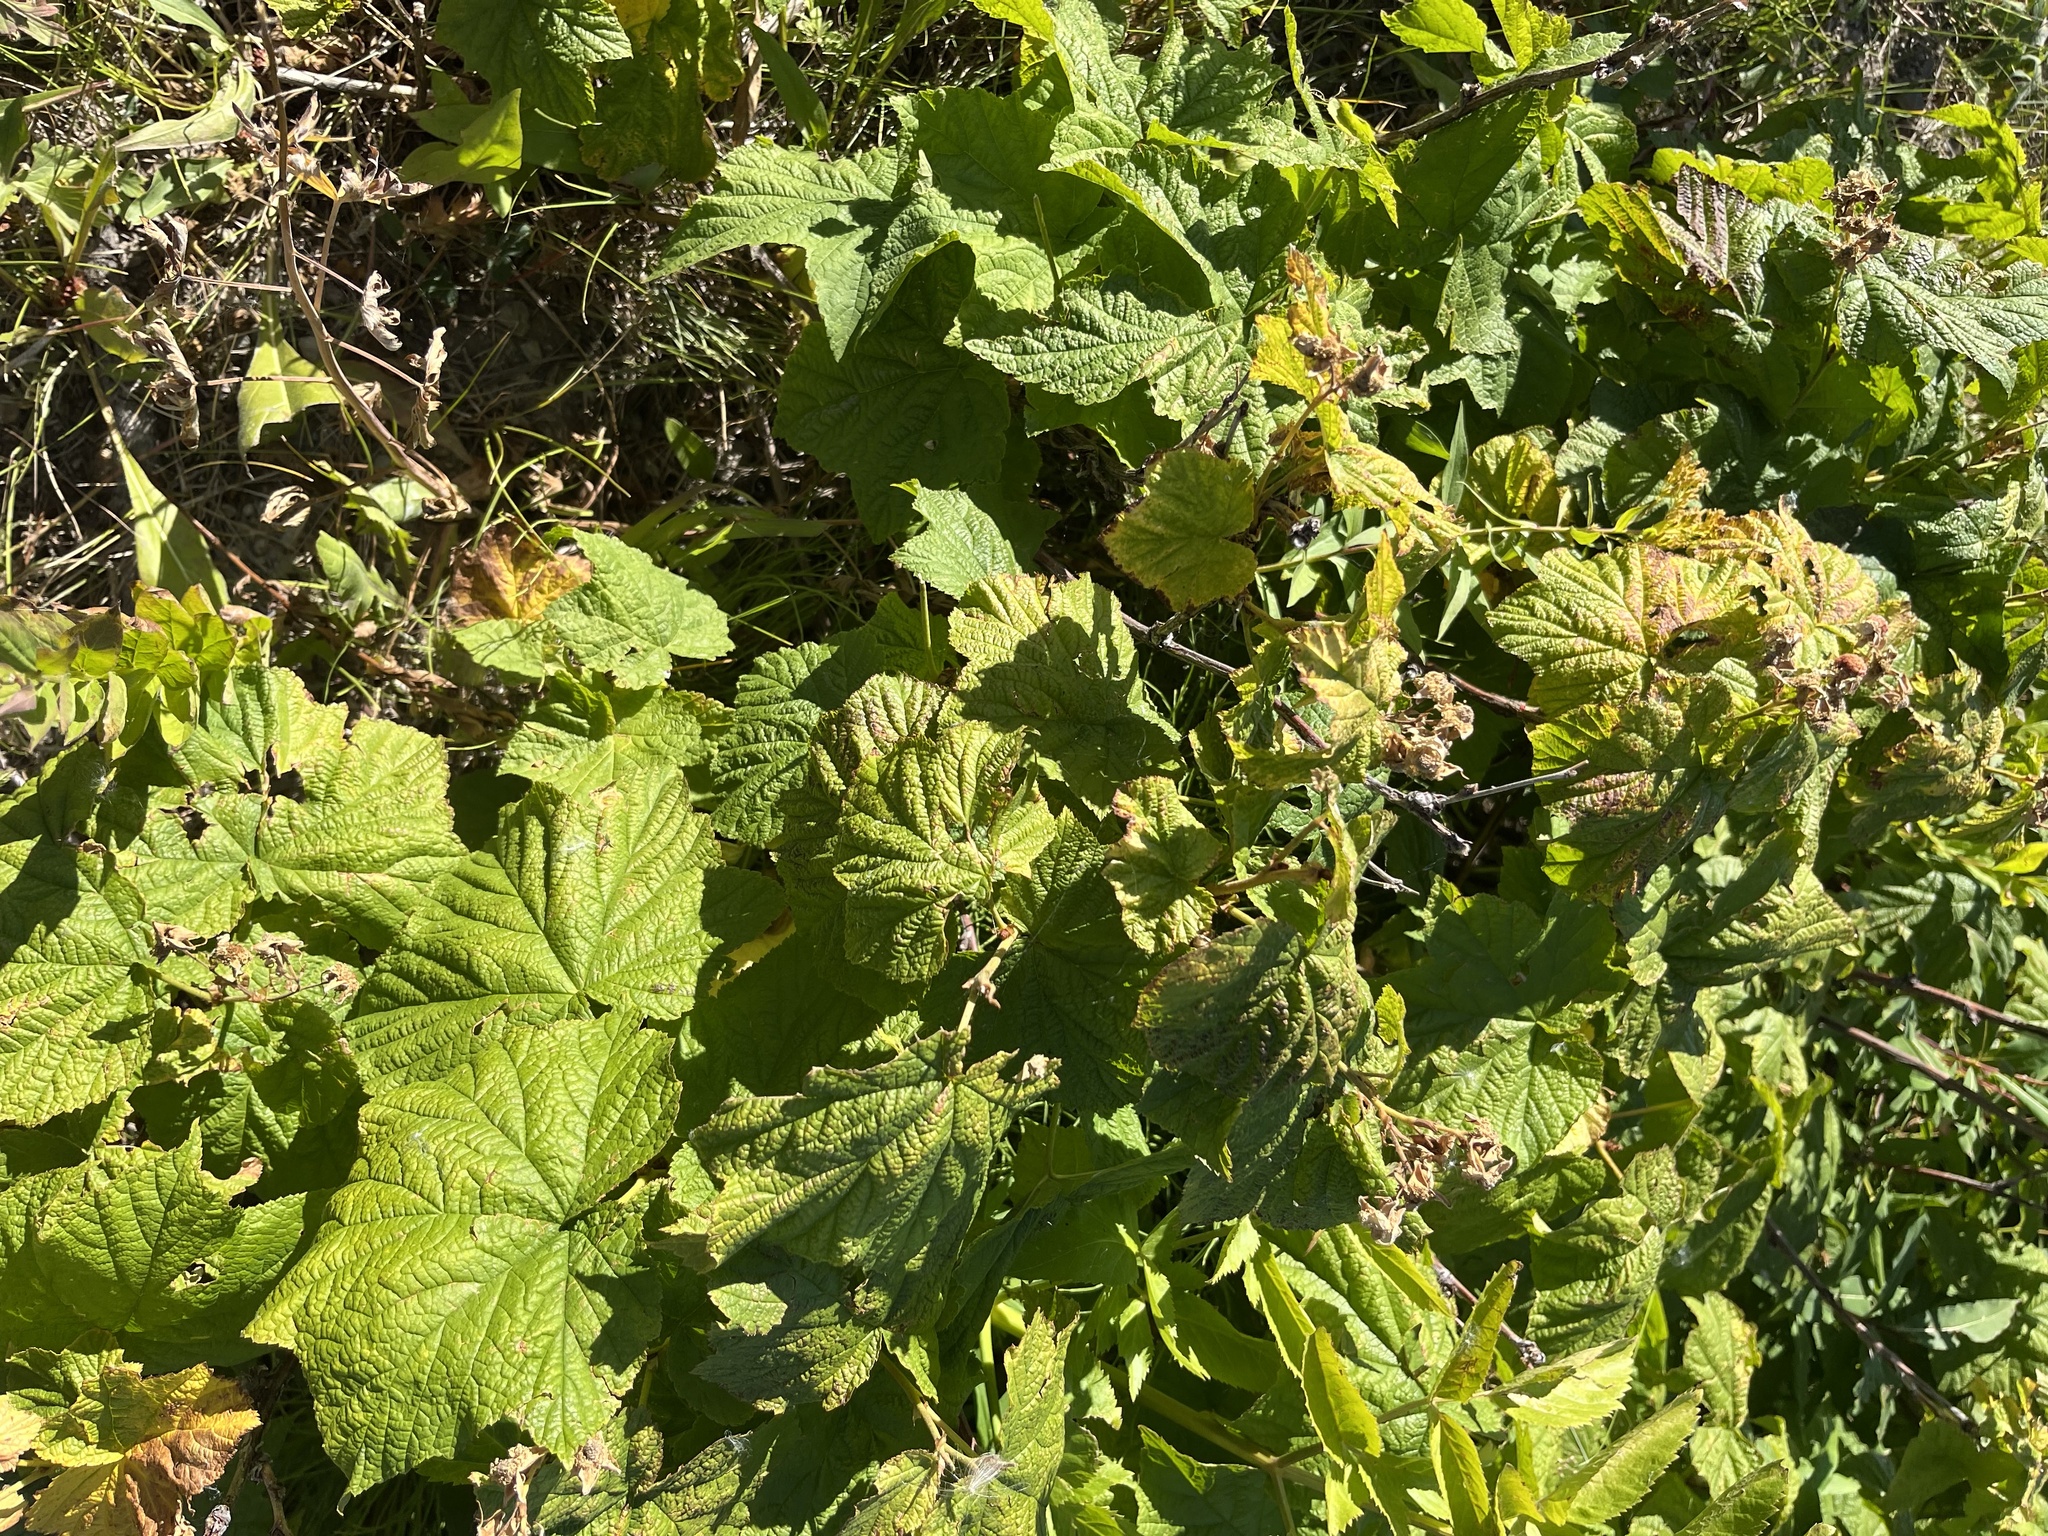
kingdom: Plantae
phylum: Tracheophyta
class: Magnoliopsida
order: Rosales
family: Rosaceae
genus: Rubus
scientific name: Rubus parviflorus
